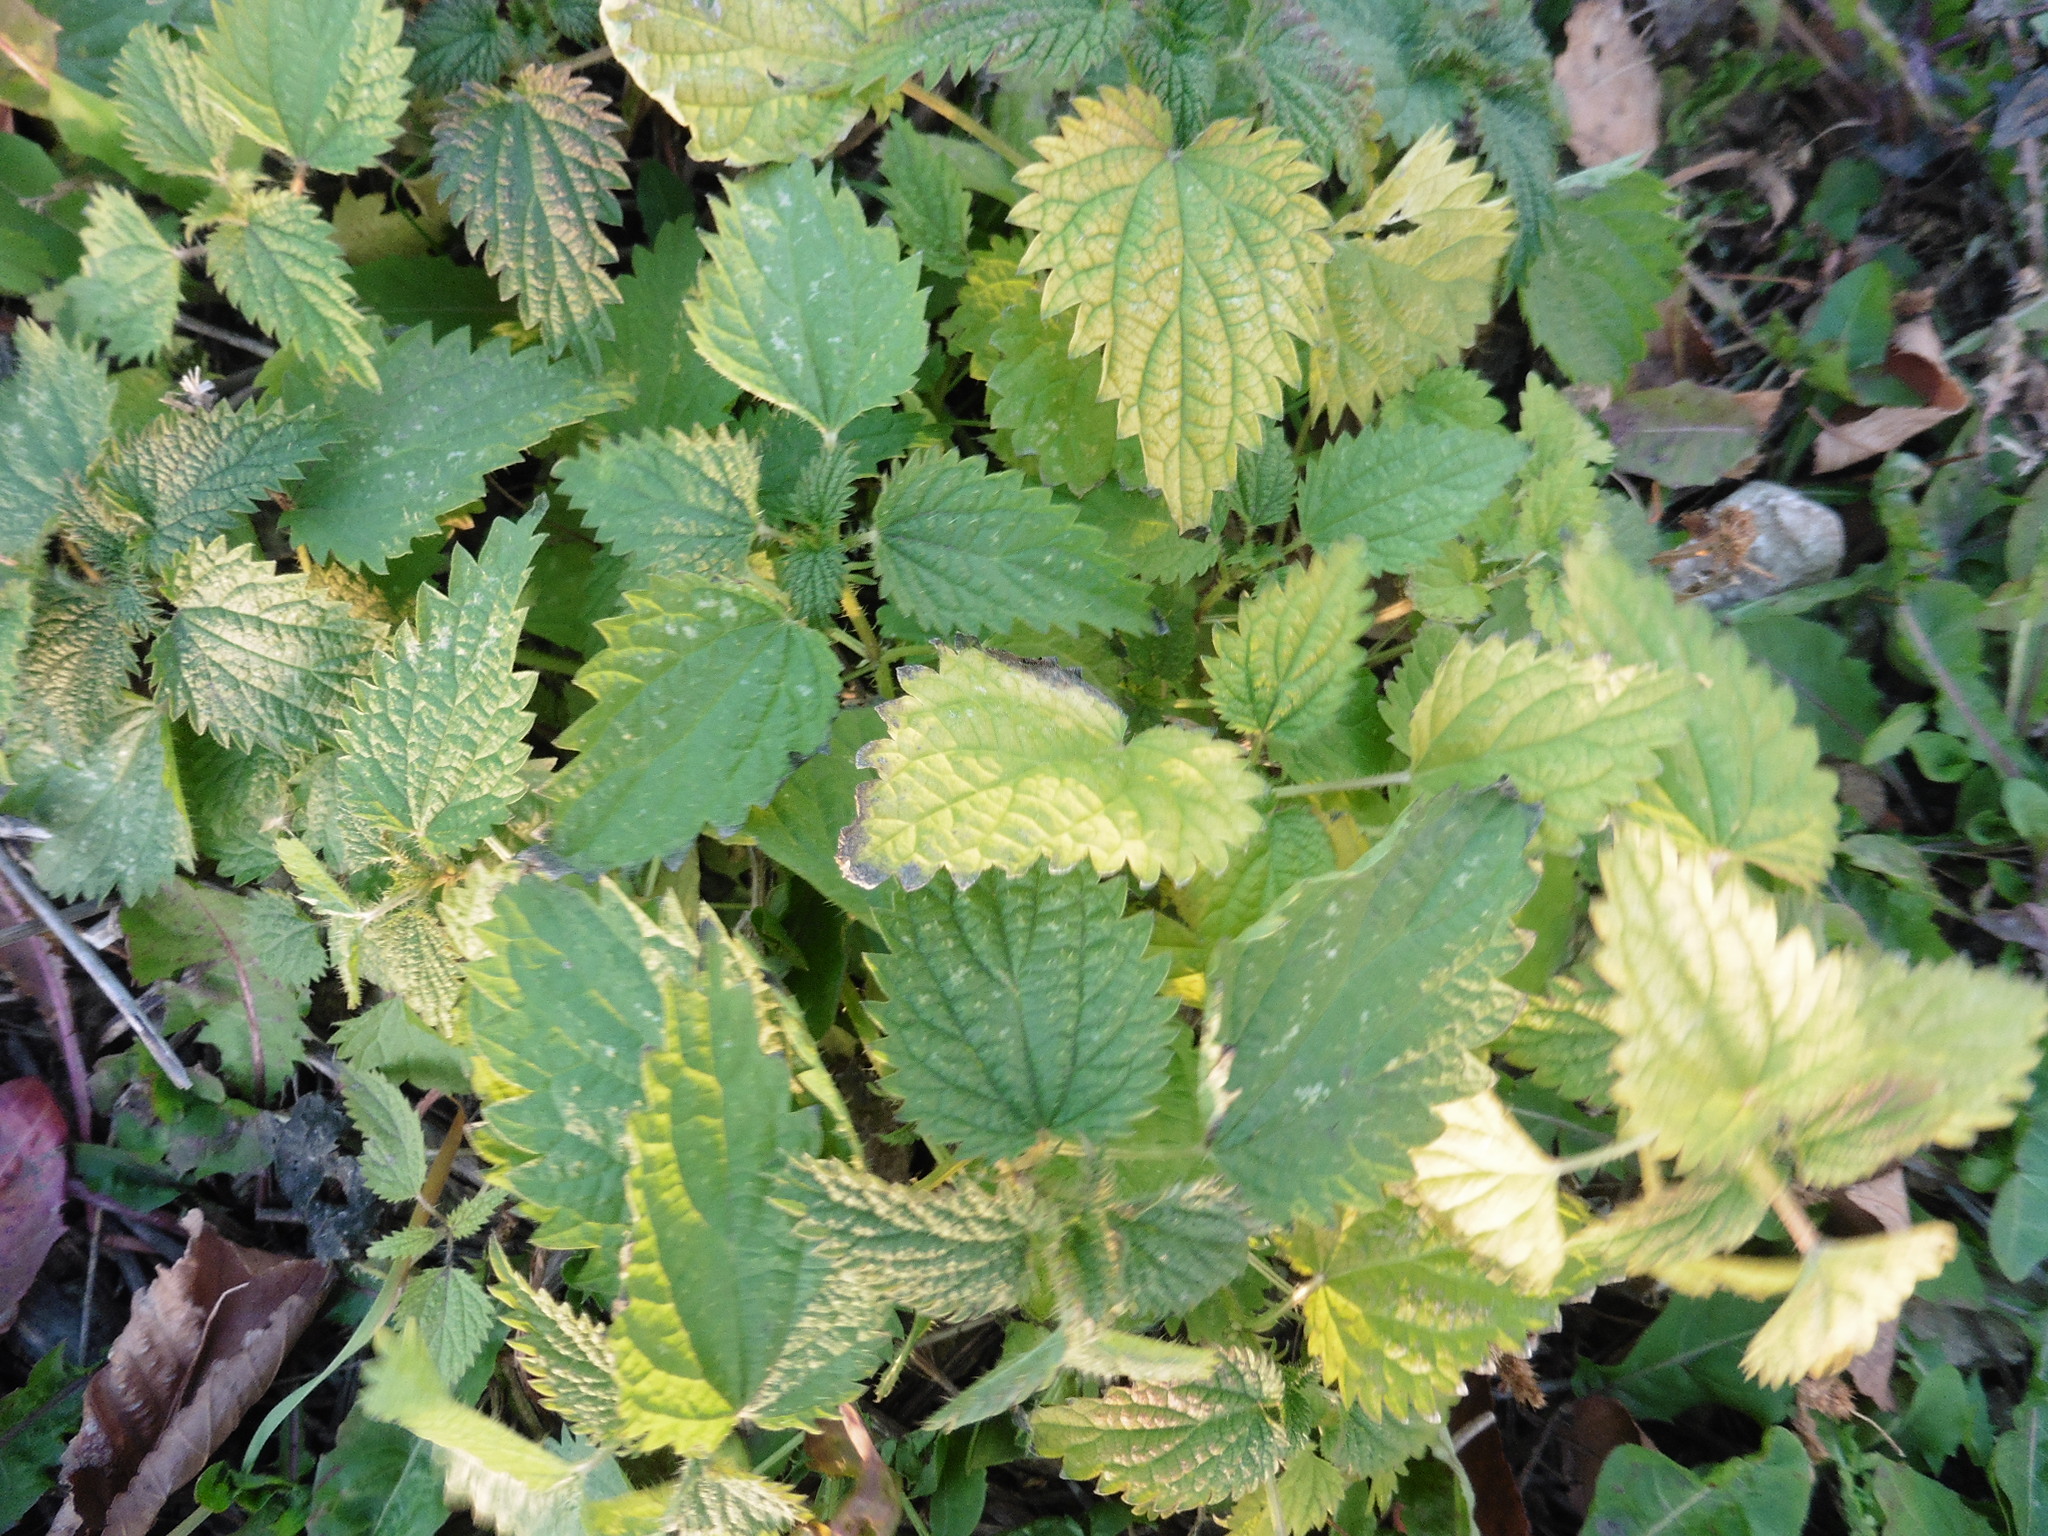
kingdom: Plantae
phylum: Tracheophyta
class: Magnoliopsida
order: Rosales
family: Urticaceae
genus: Urtica
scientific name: Urtica dioica
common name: Common nettle
